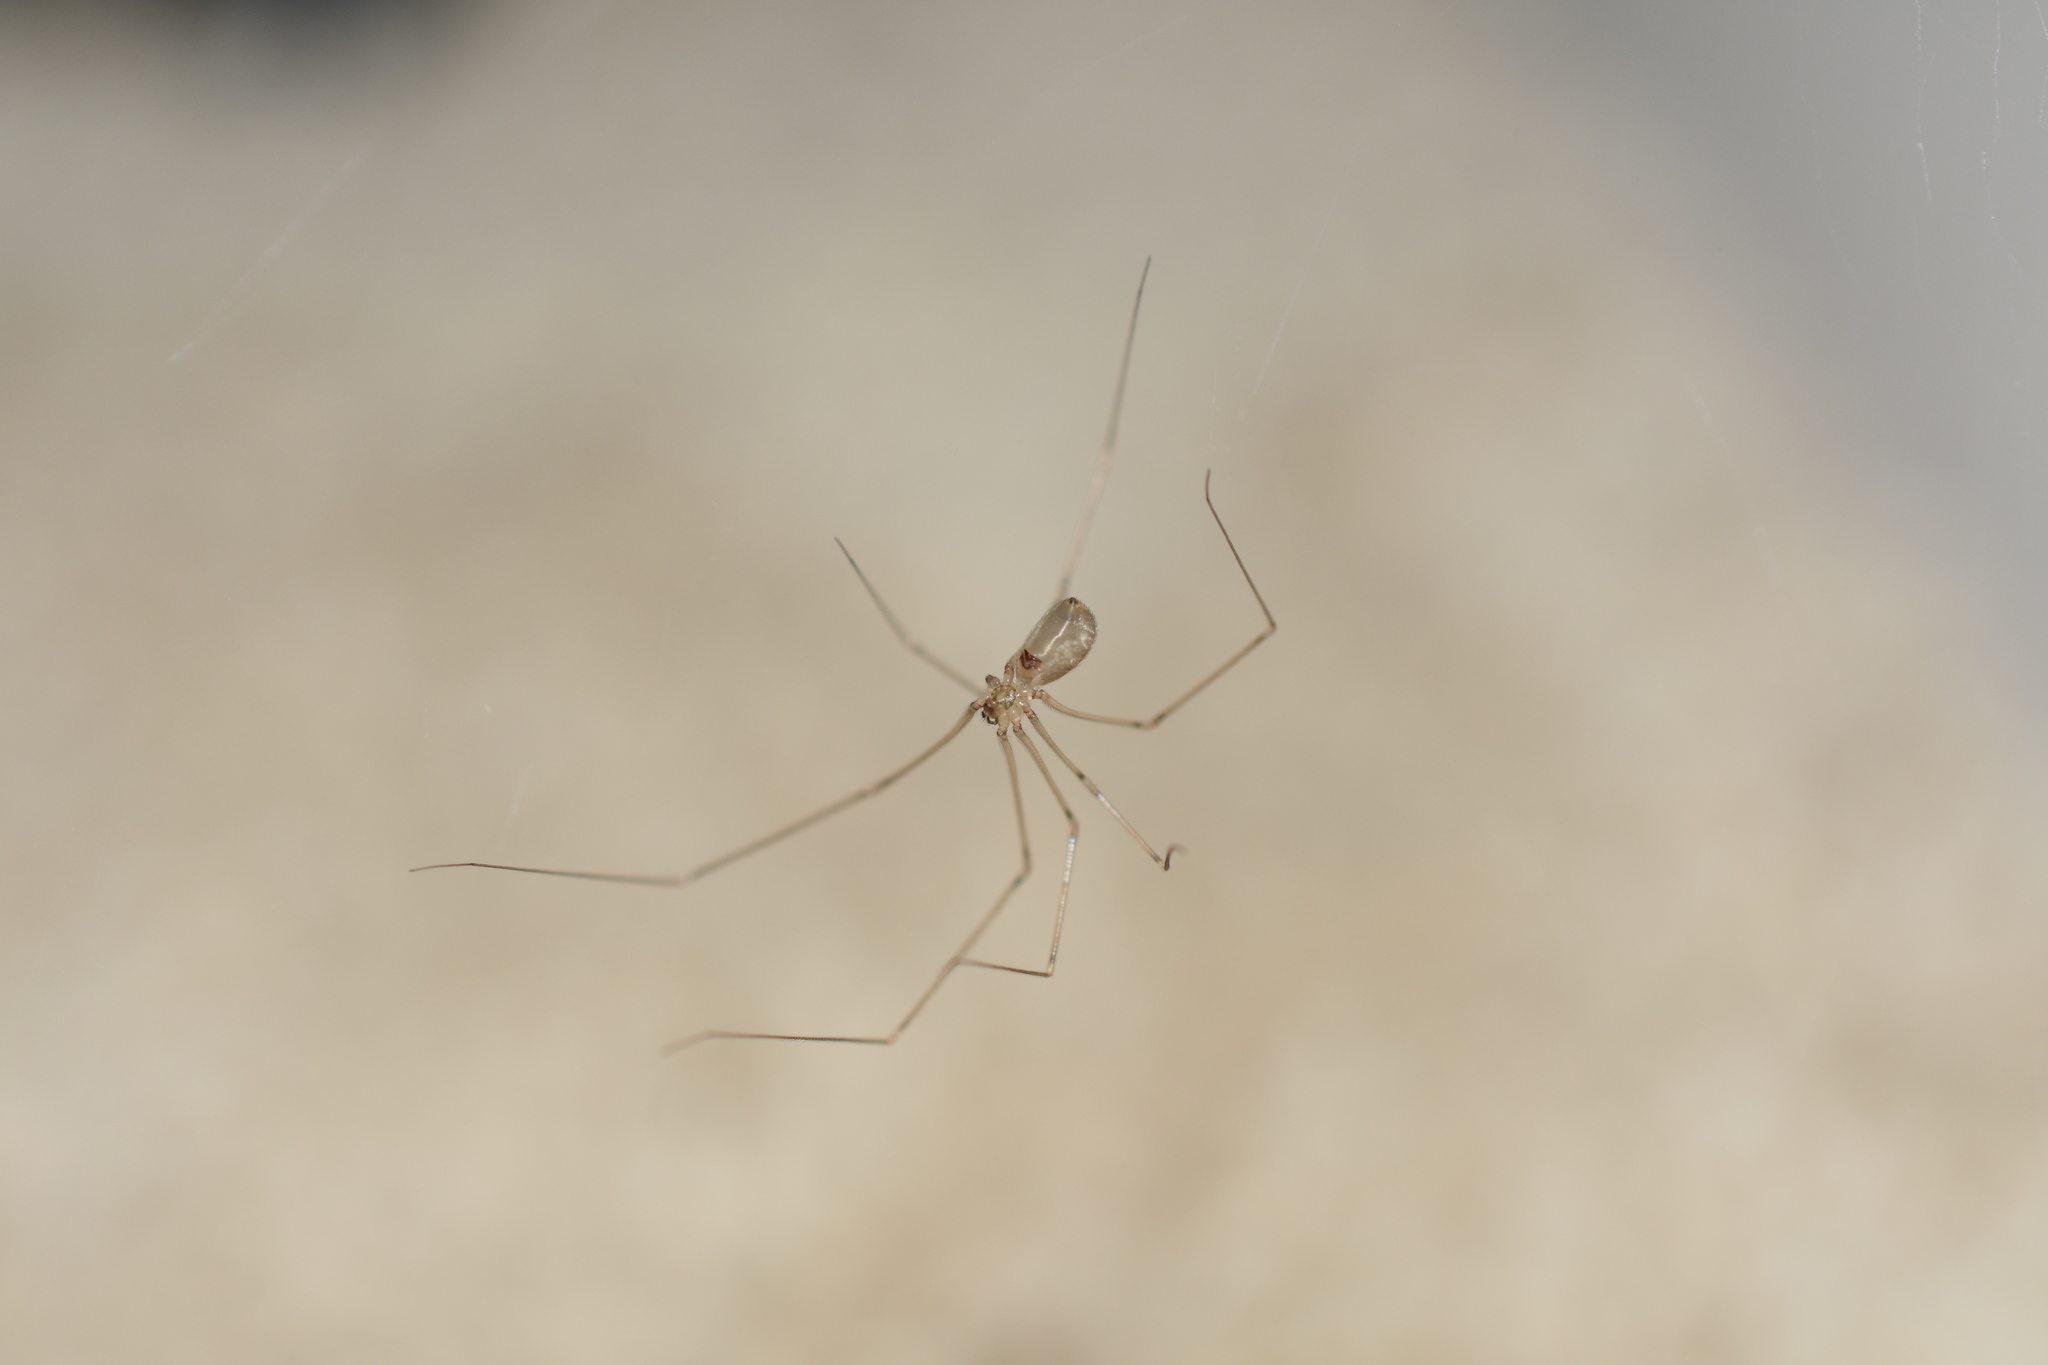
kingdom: Animalia
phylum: Arthropoda
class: Arachnida
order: Araneae
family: Pholcidae
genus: Pholcus
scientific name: Pholcus manueli
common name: Cellar spider
